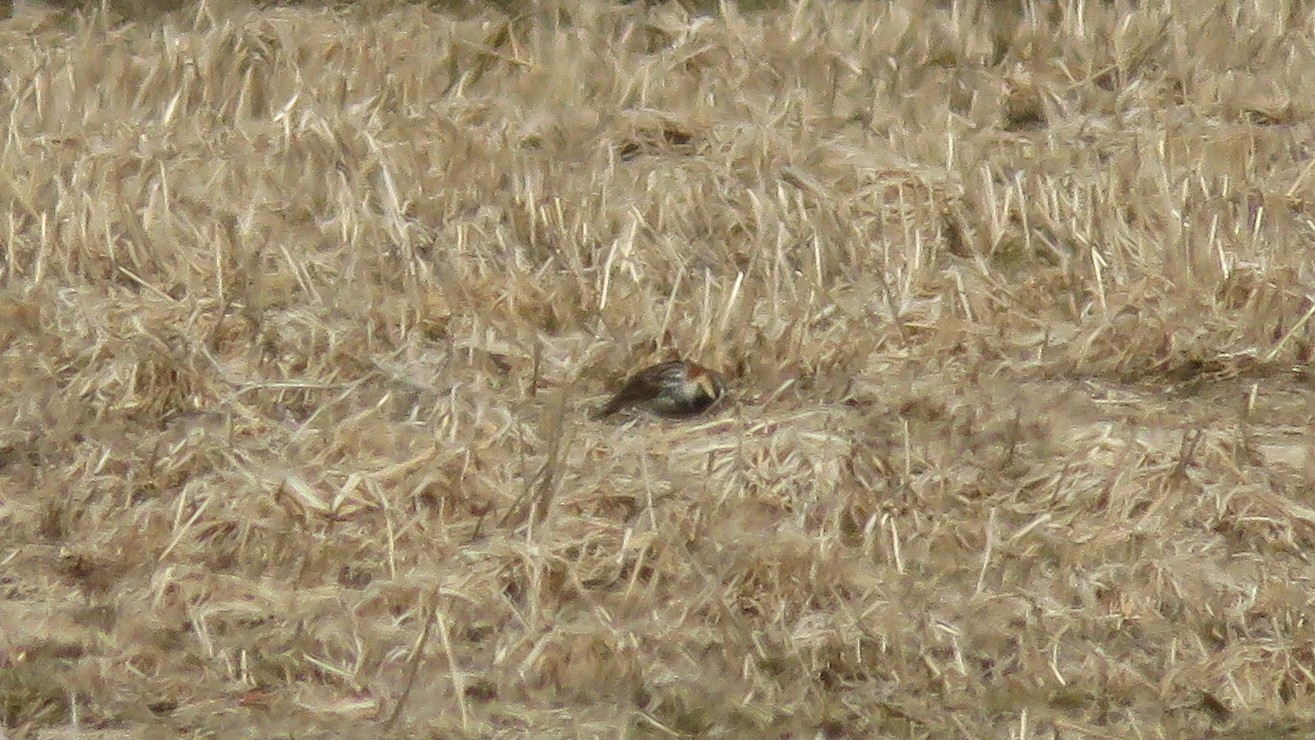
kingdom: Animalia
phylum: Chordata
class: Aves
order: Passeriformes
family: Calcariidae
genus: Calcarius
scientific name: Calcarius lapponicus
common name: Lapland longspur
